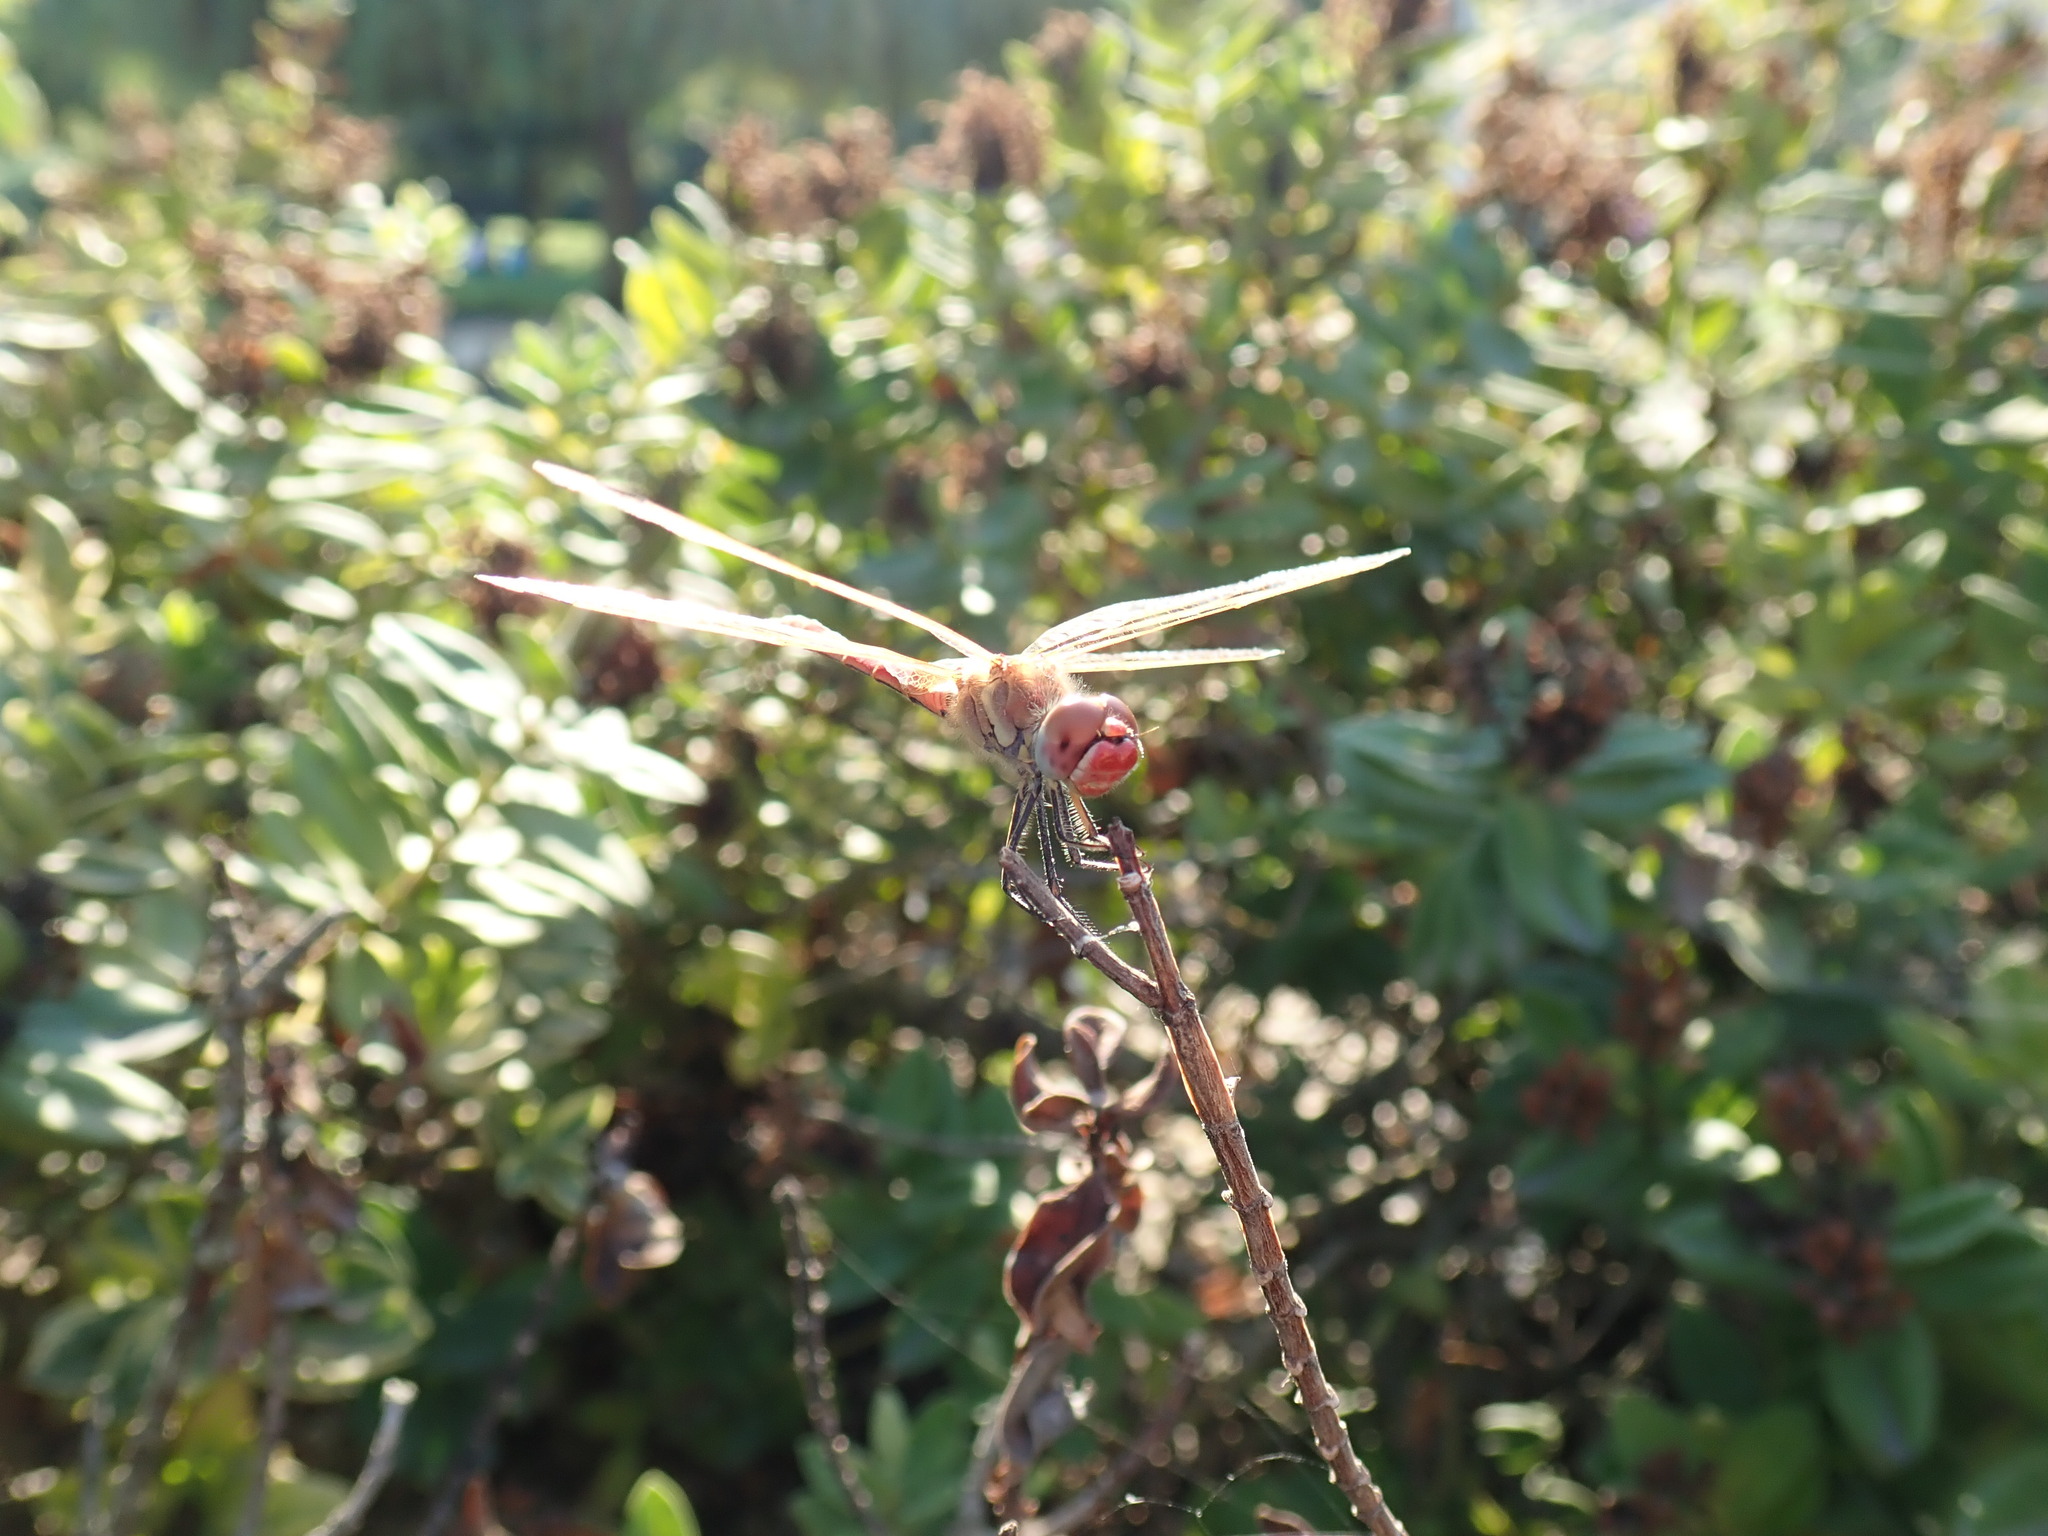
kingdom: Animalia
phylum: Arthropoda
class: Insecta
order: Odonata
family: Libellulidae
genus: Sympetrum
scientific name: Sympetrum fonscolombii
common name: Red-veined darter
